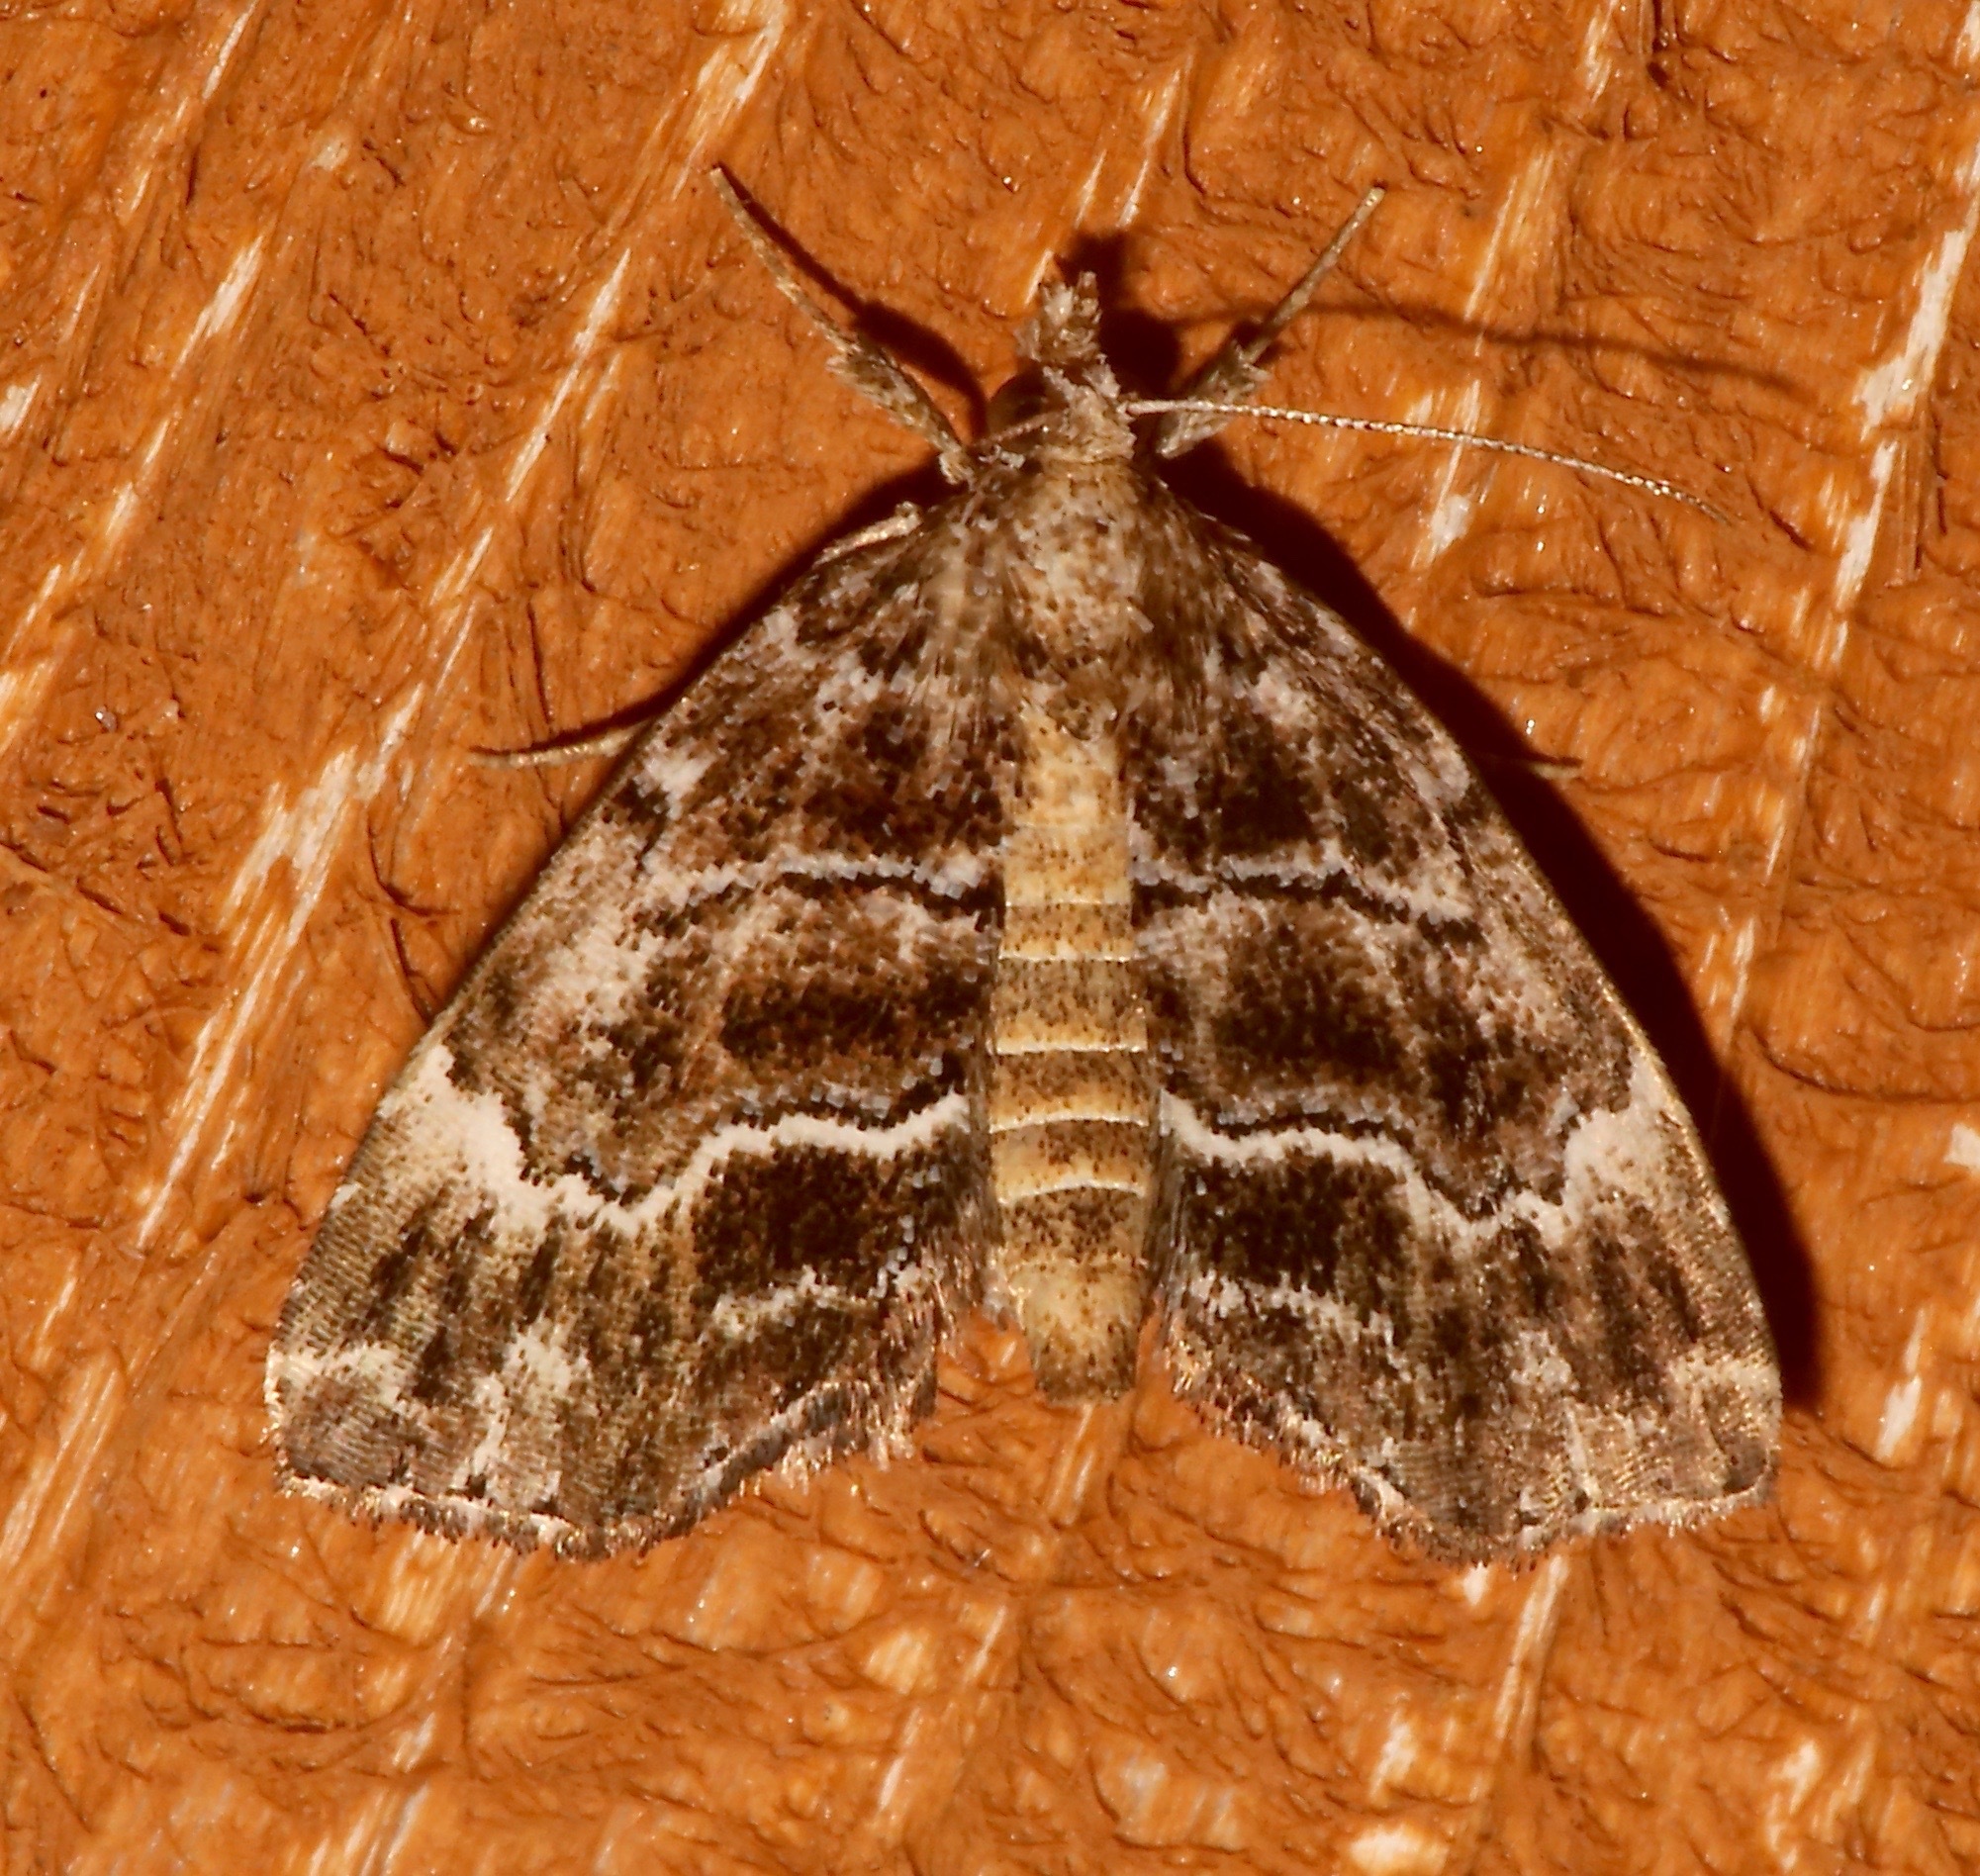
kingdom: Animalia
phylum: Arthropoda
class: Insecta
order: Lepidoptera
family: Erebidae
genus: Cutina
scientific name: Cutina arcuata
